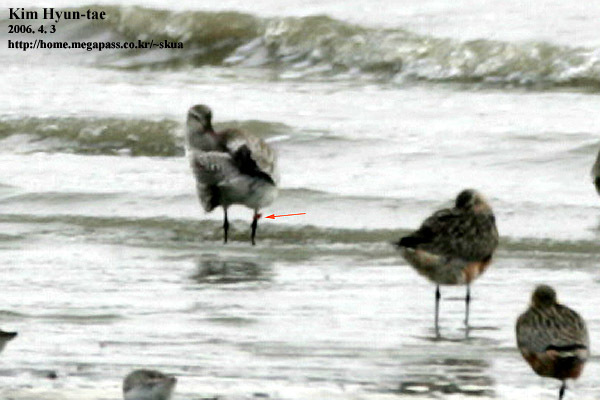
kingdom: Animalia
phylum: Chordata
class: Aves
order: Charadriiformes
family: Scolopacidae
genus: Limosa
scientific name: Limosa lapponica
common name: Bar-tailed godwit
